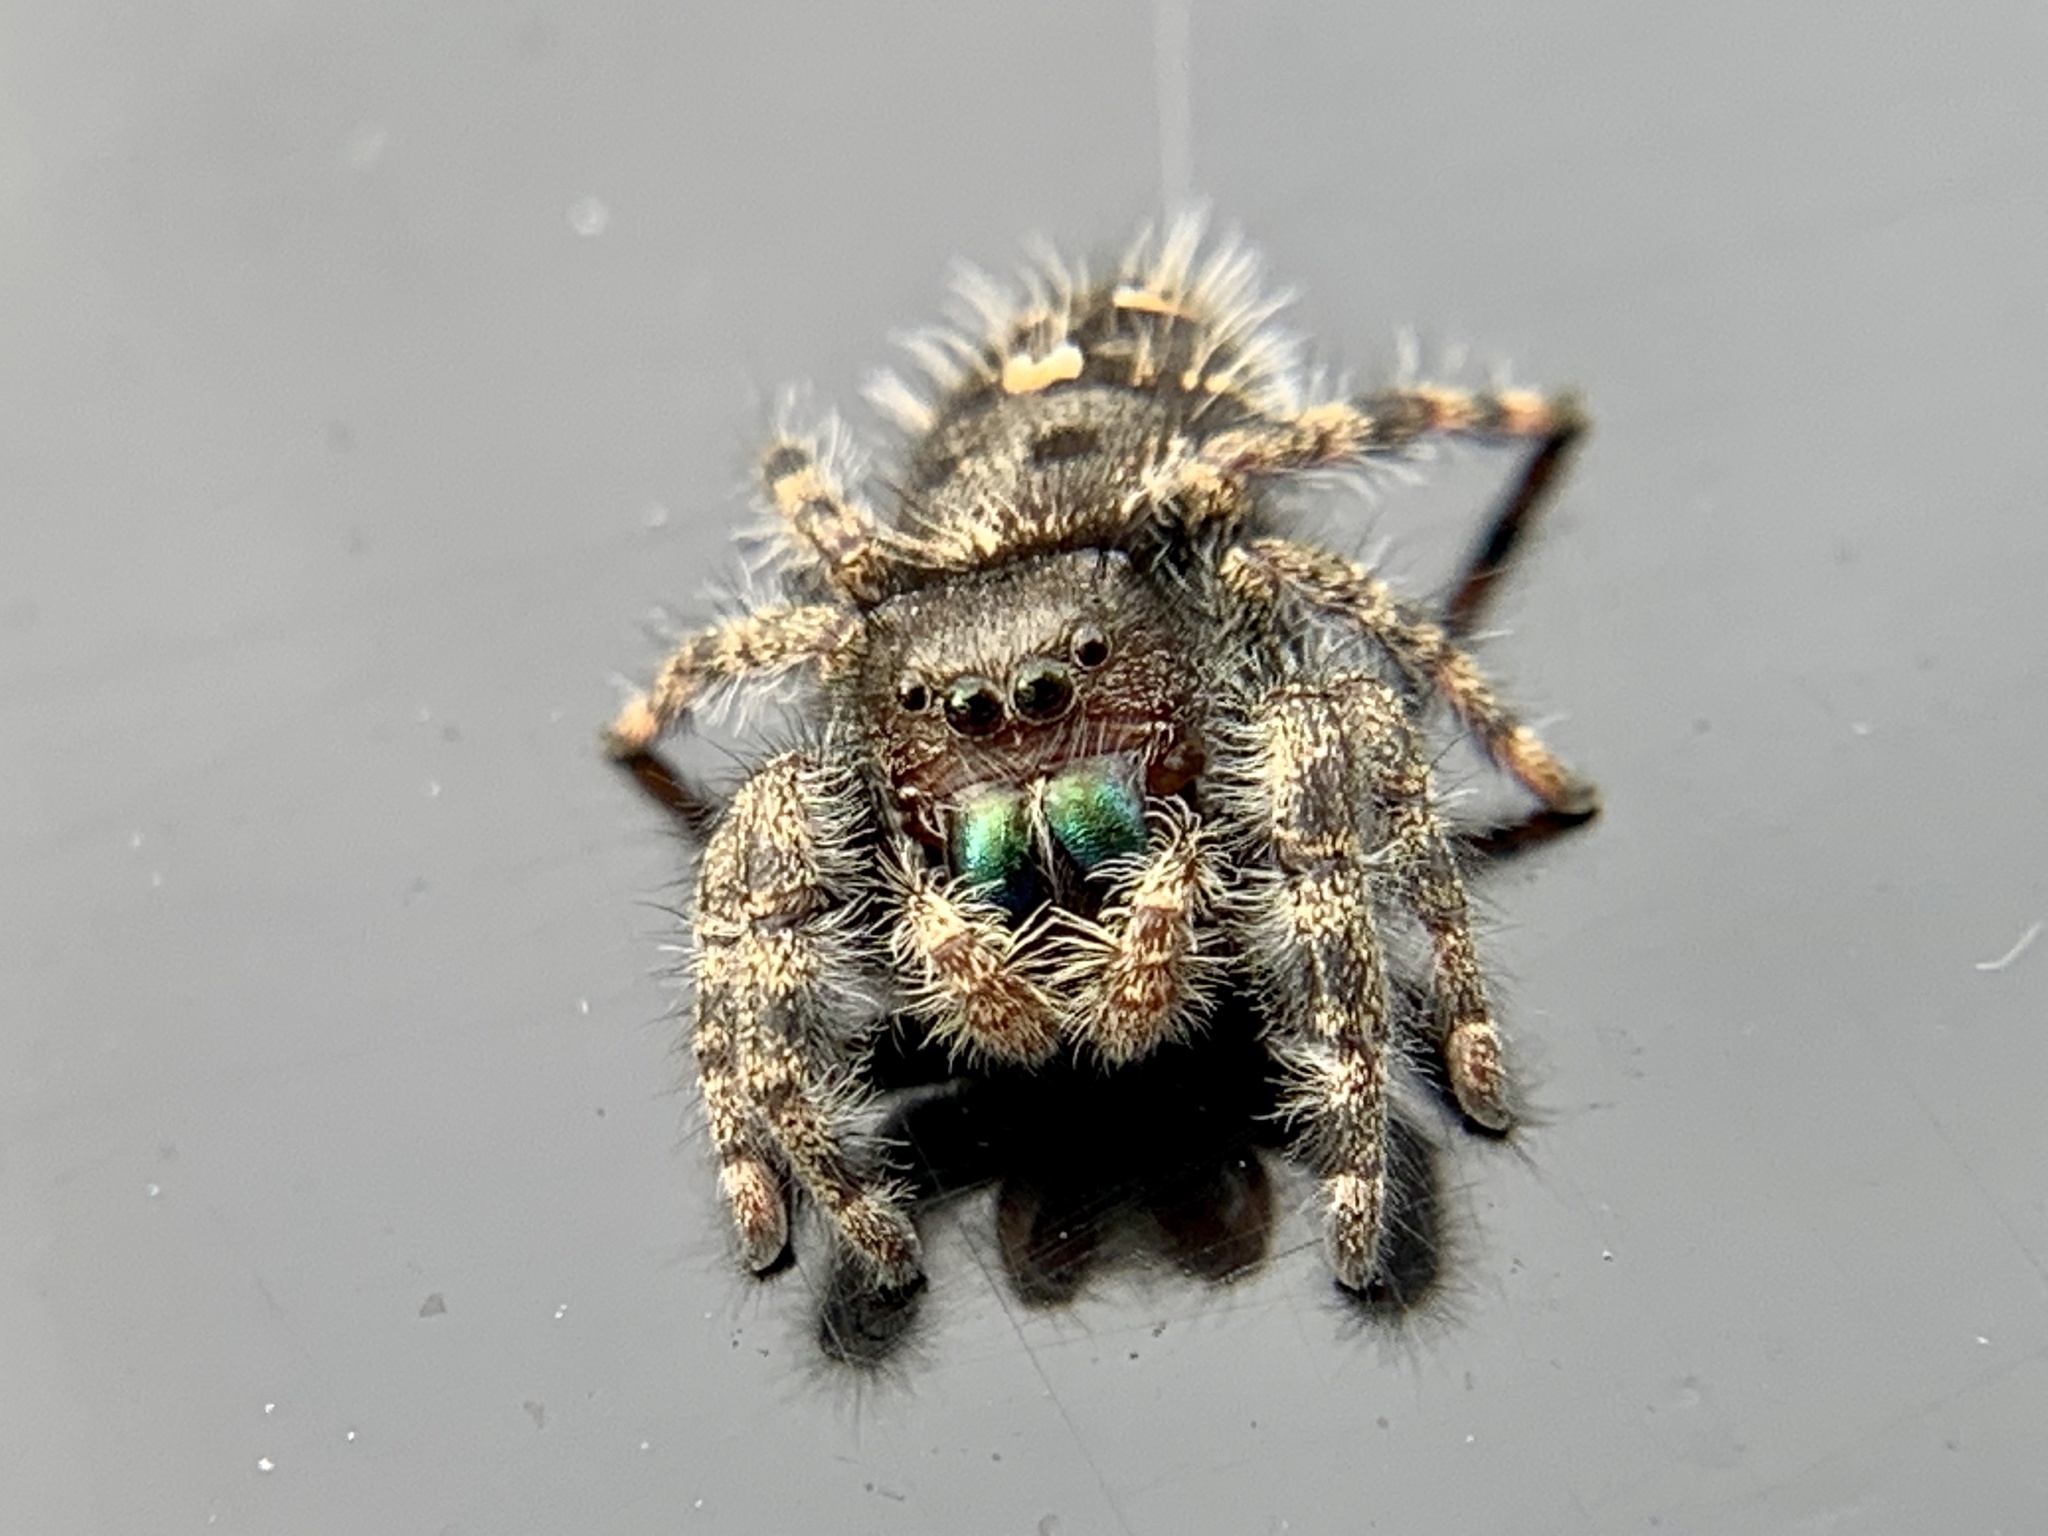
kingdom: Animalia
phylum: Arthropoda
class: Arachnida
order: Araneae
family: Salticidae
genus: Phidippus
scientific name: Phidippus audax
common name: Bold jumper
